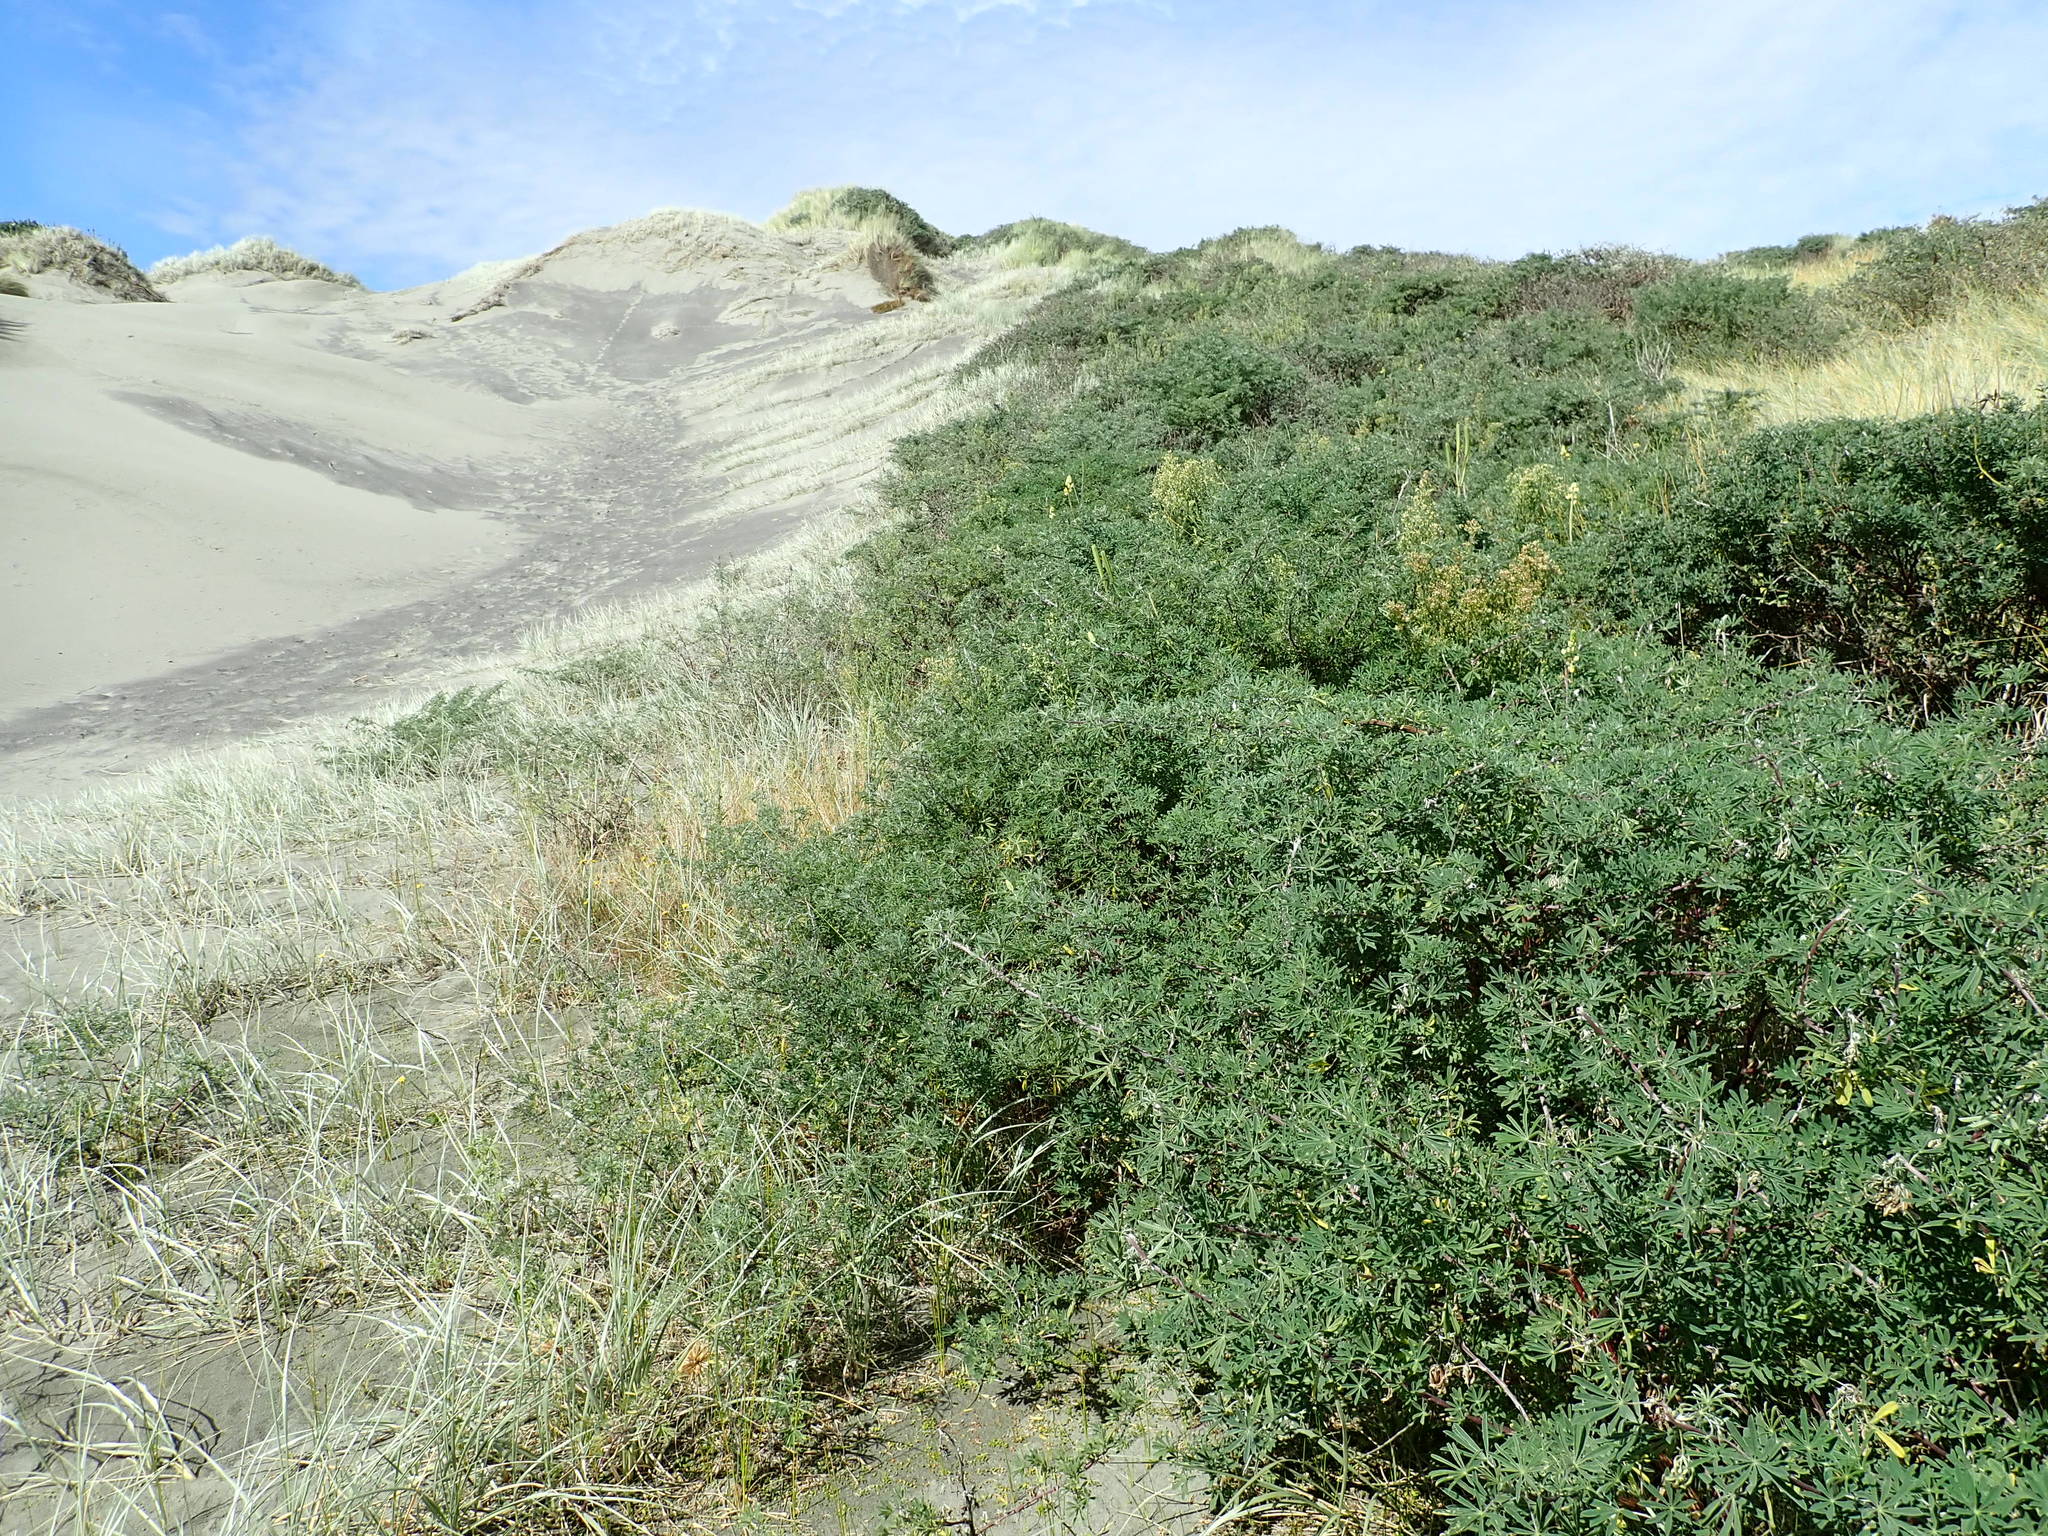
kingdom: Plantae
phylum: Tracheophyta
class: Magnoliopsida
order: Fabales
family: Fabaceae
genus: Lupinus
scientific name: Lupinus arboreus
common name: Yellow bush lupine
